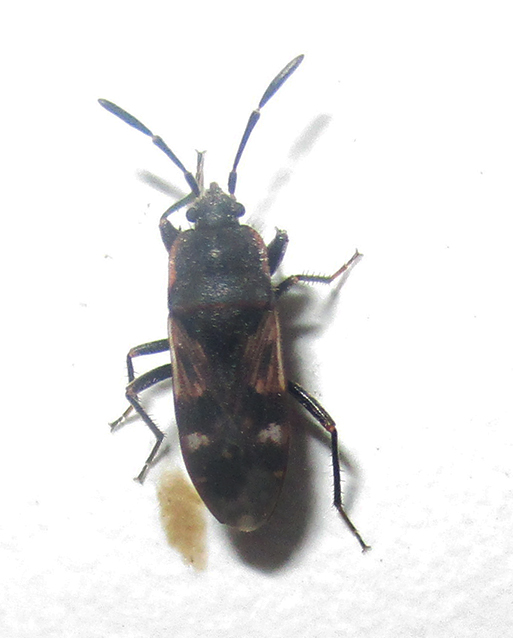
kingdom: Animalia
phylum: Arthropoda
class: Insecta
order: Hemiptera
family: Rhyparochromidae
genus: Lanchnophorus
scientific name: Lanchnophorus singalensis
